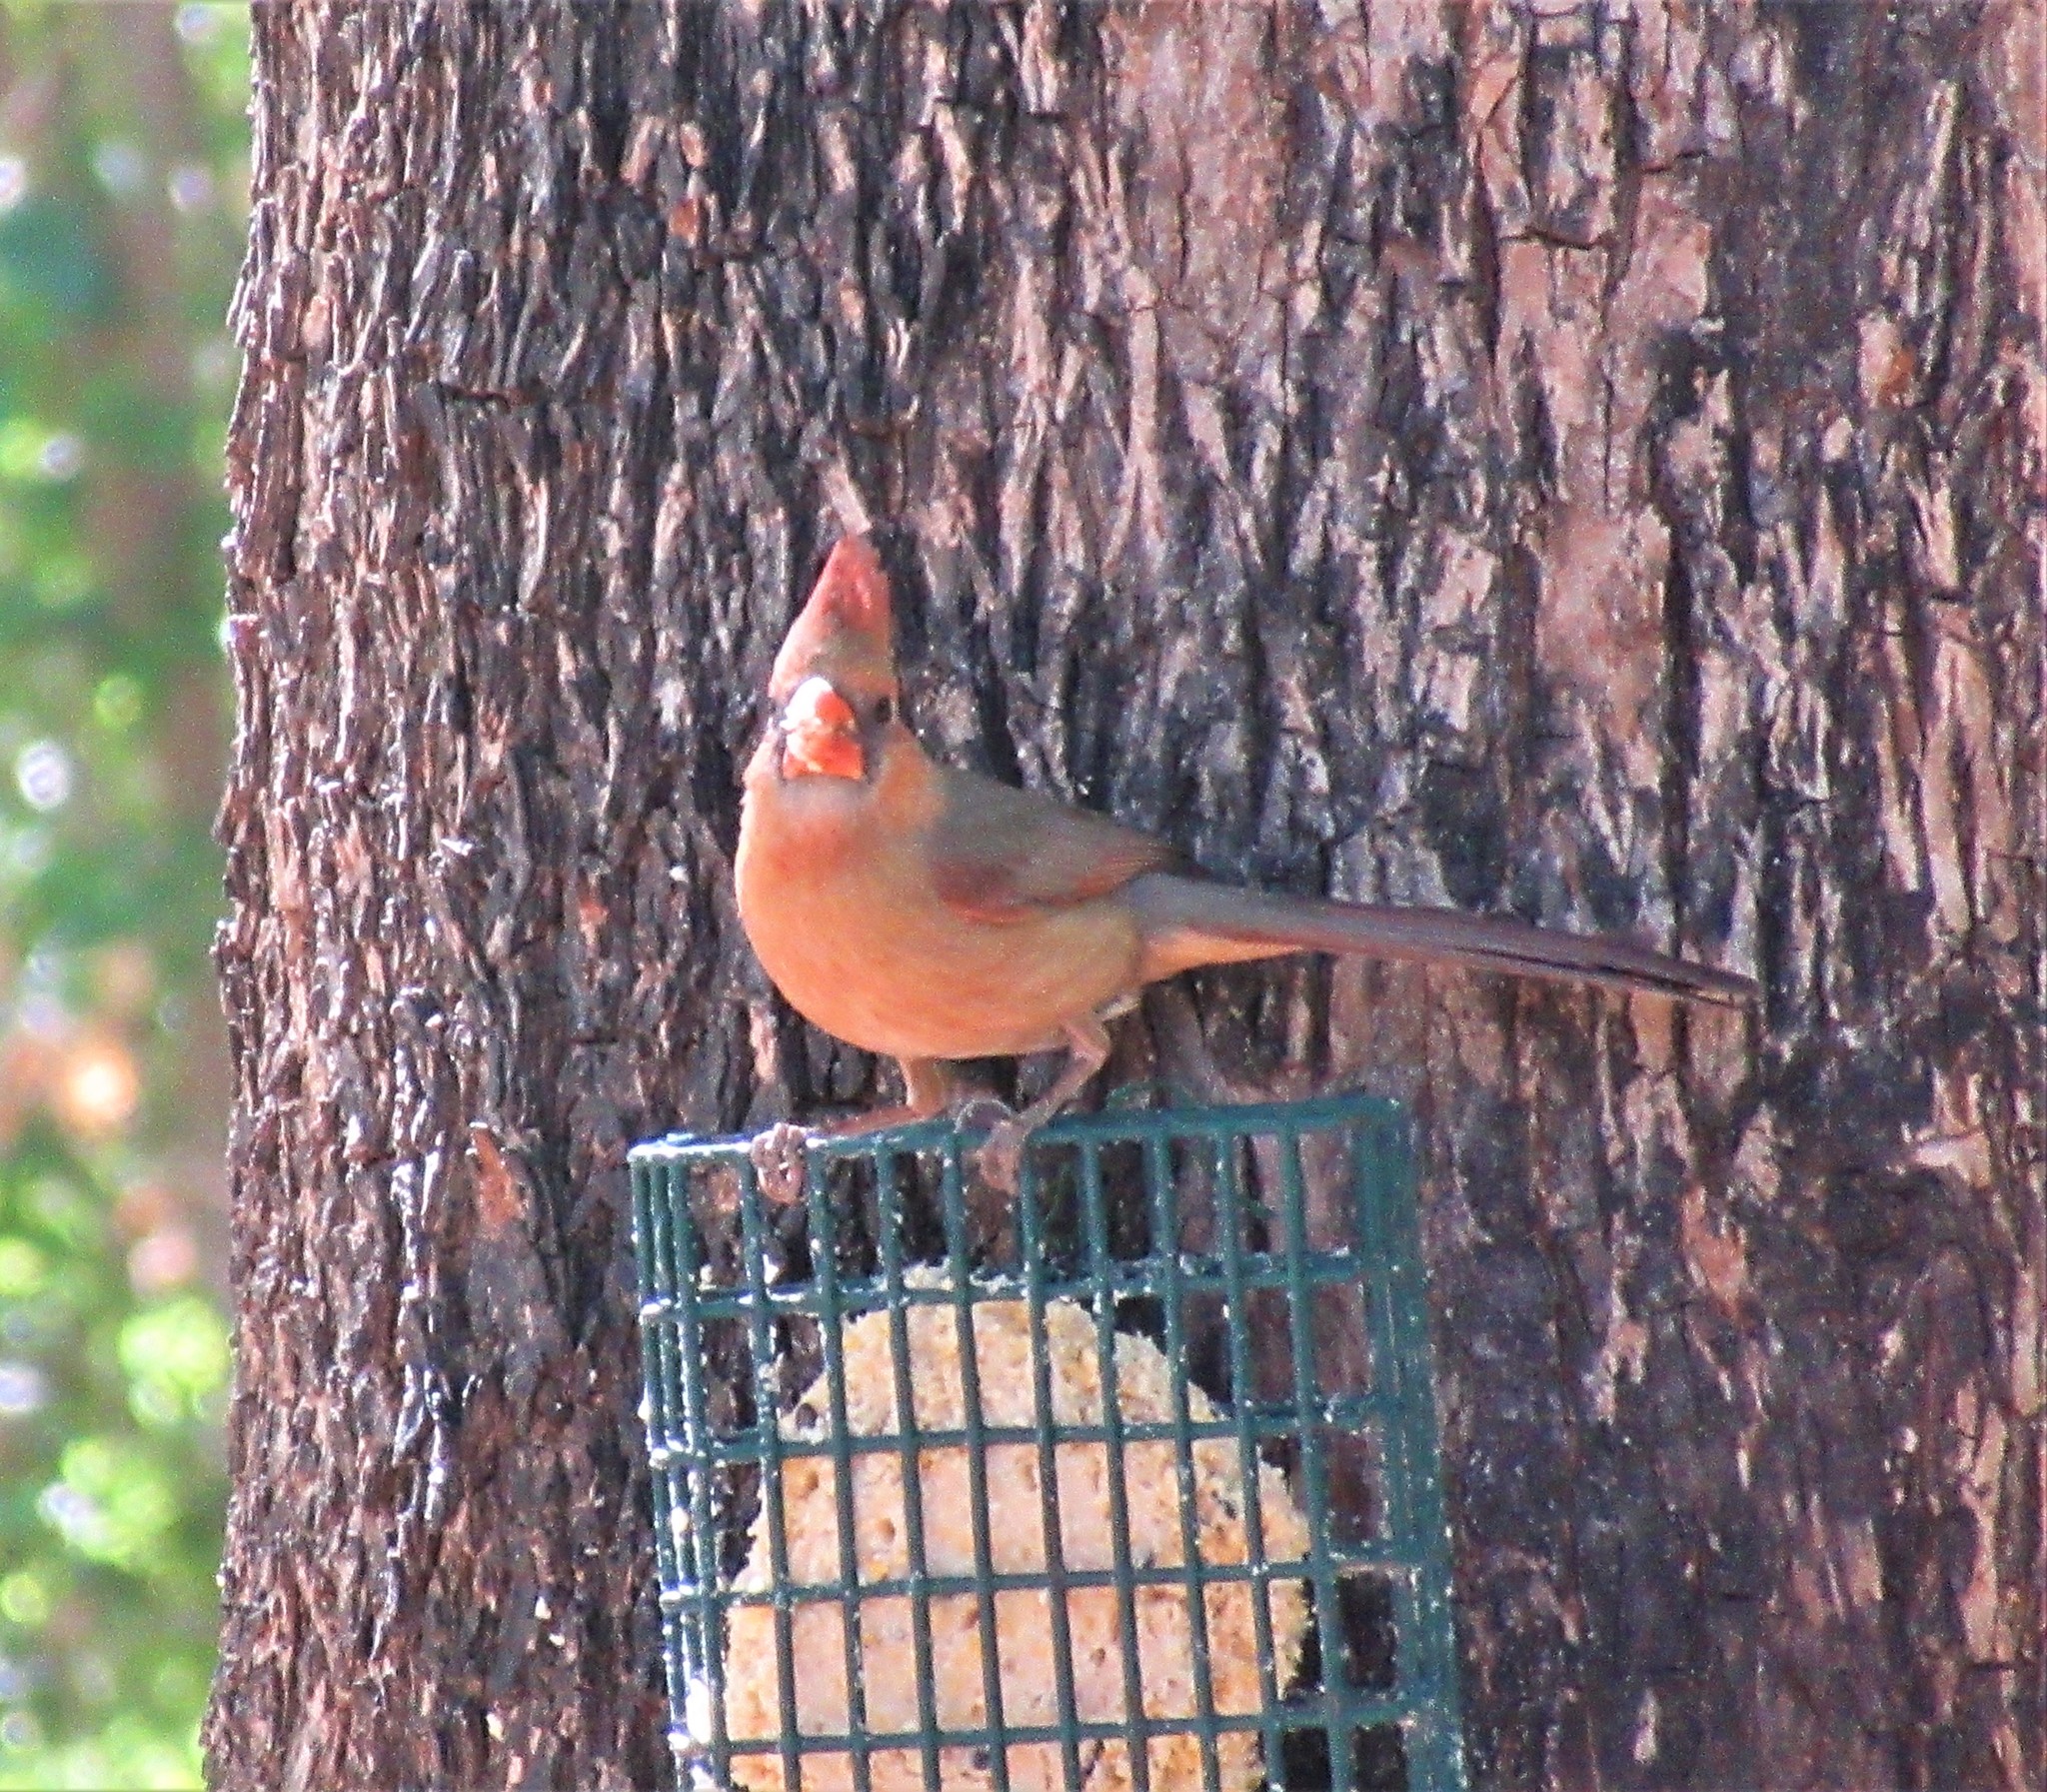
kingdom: Animalia
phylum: Chordata
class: Aves
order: Passeriformes
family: Cardinalidae
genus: Cardinalis
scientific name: Cardinalis cardinalis
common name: Northern cardinal
